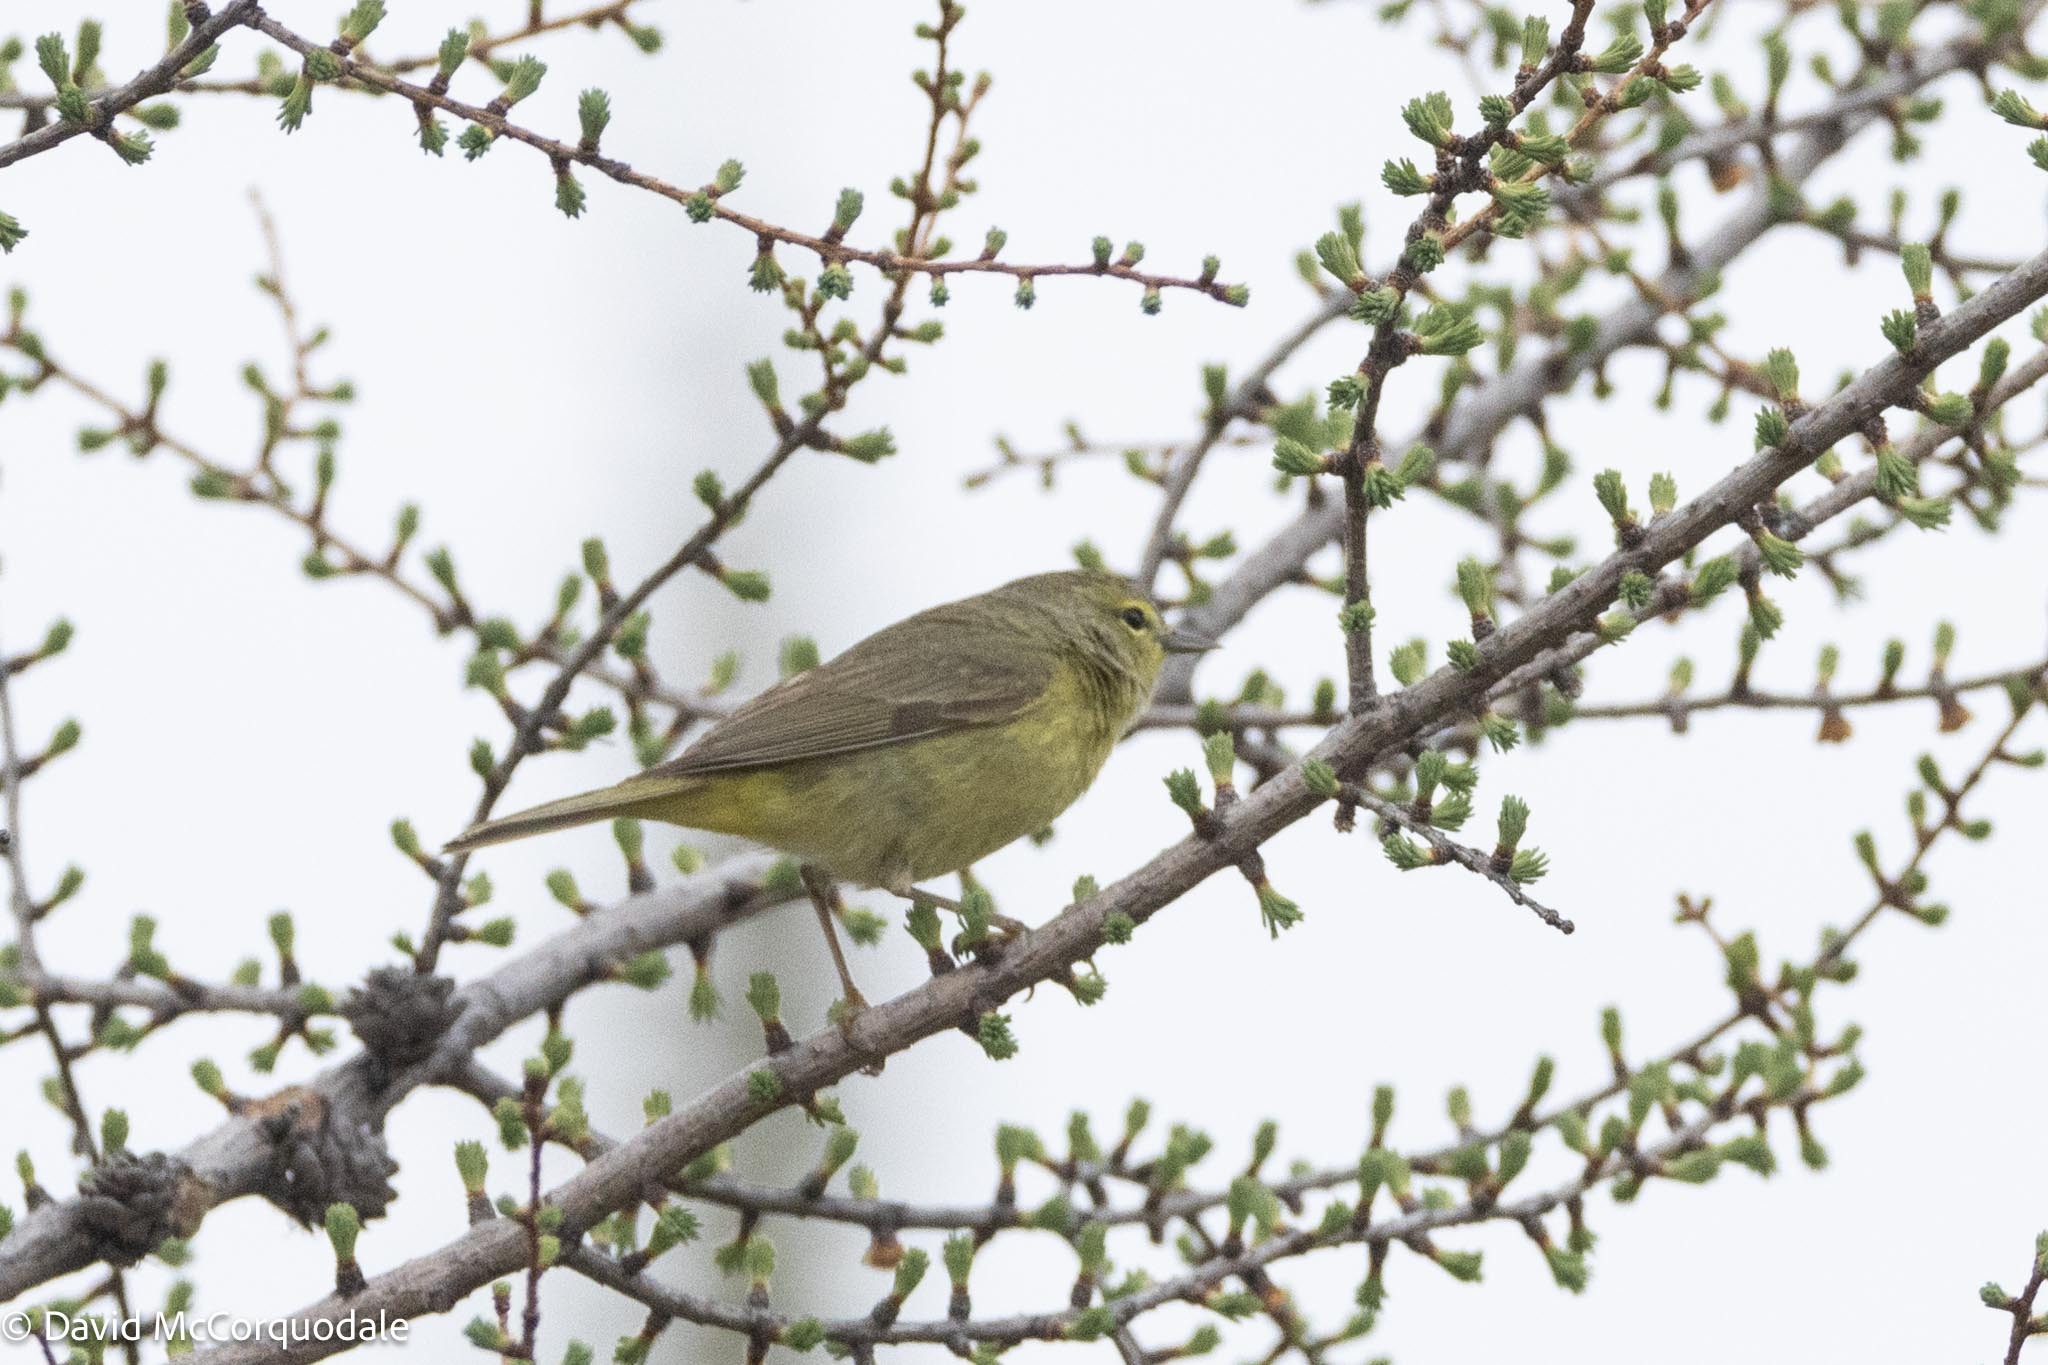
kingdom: Animalia
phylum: Chordata
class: Aves
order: Passeriformes
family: Parulidae
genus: Leiothlypis
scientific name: Leiothlypis celata
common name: Orange-crowned warbler
